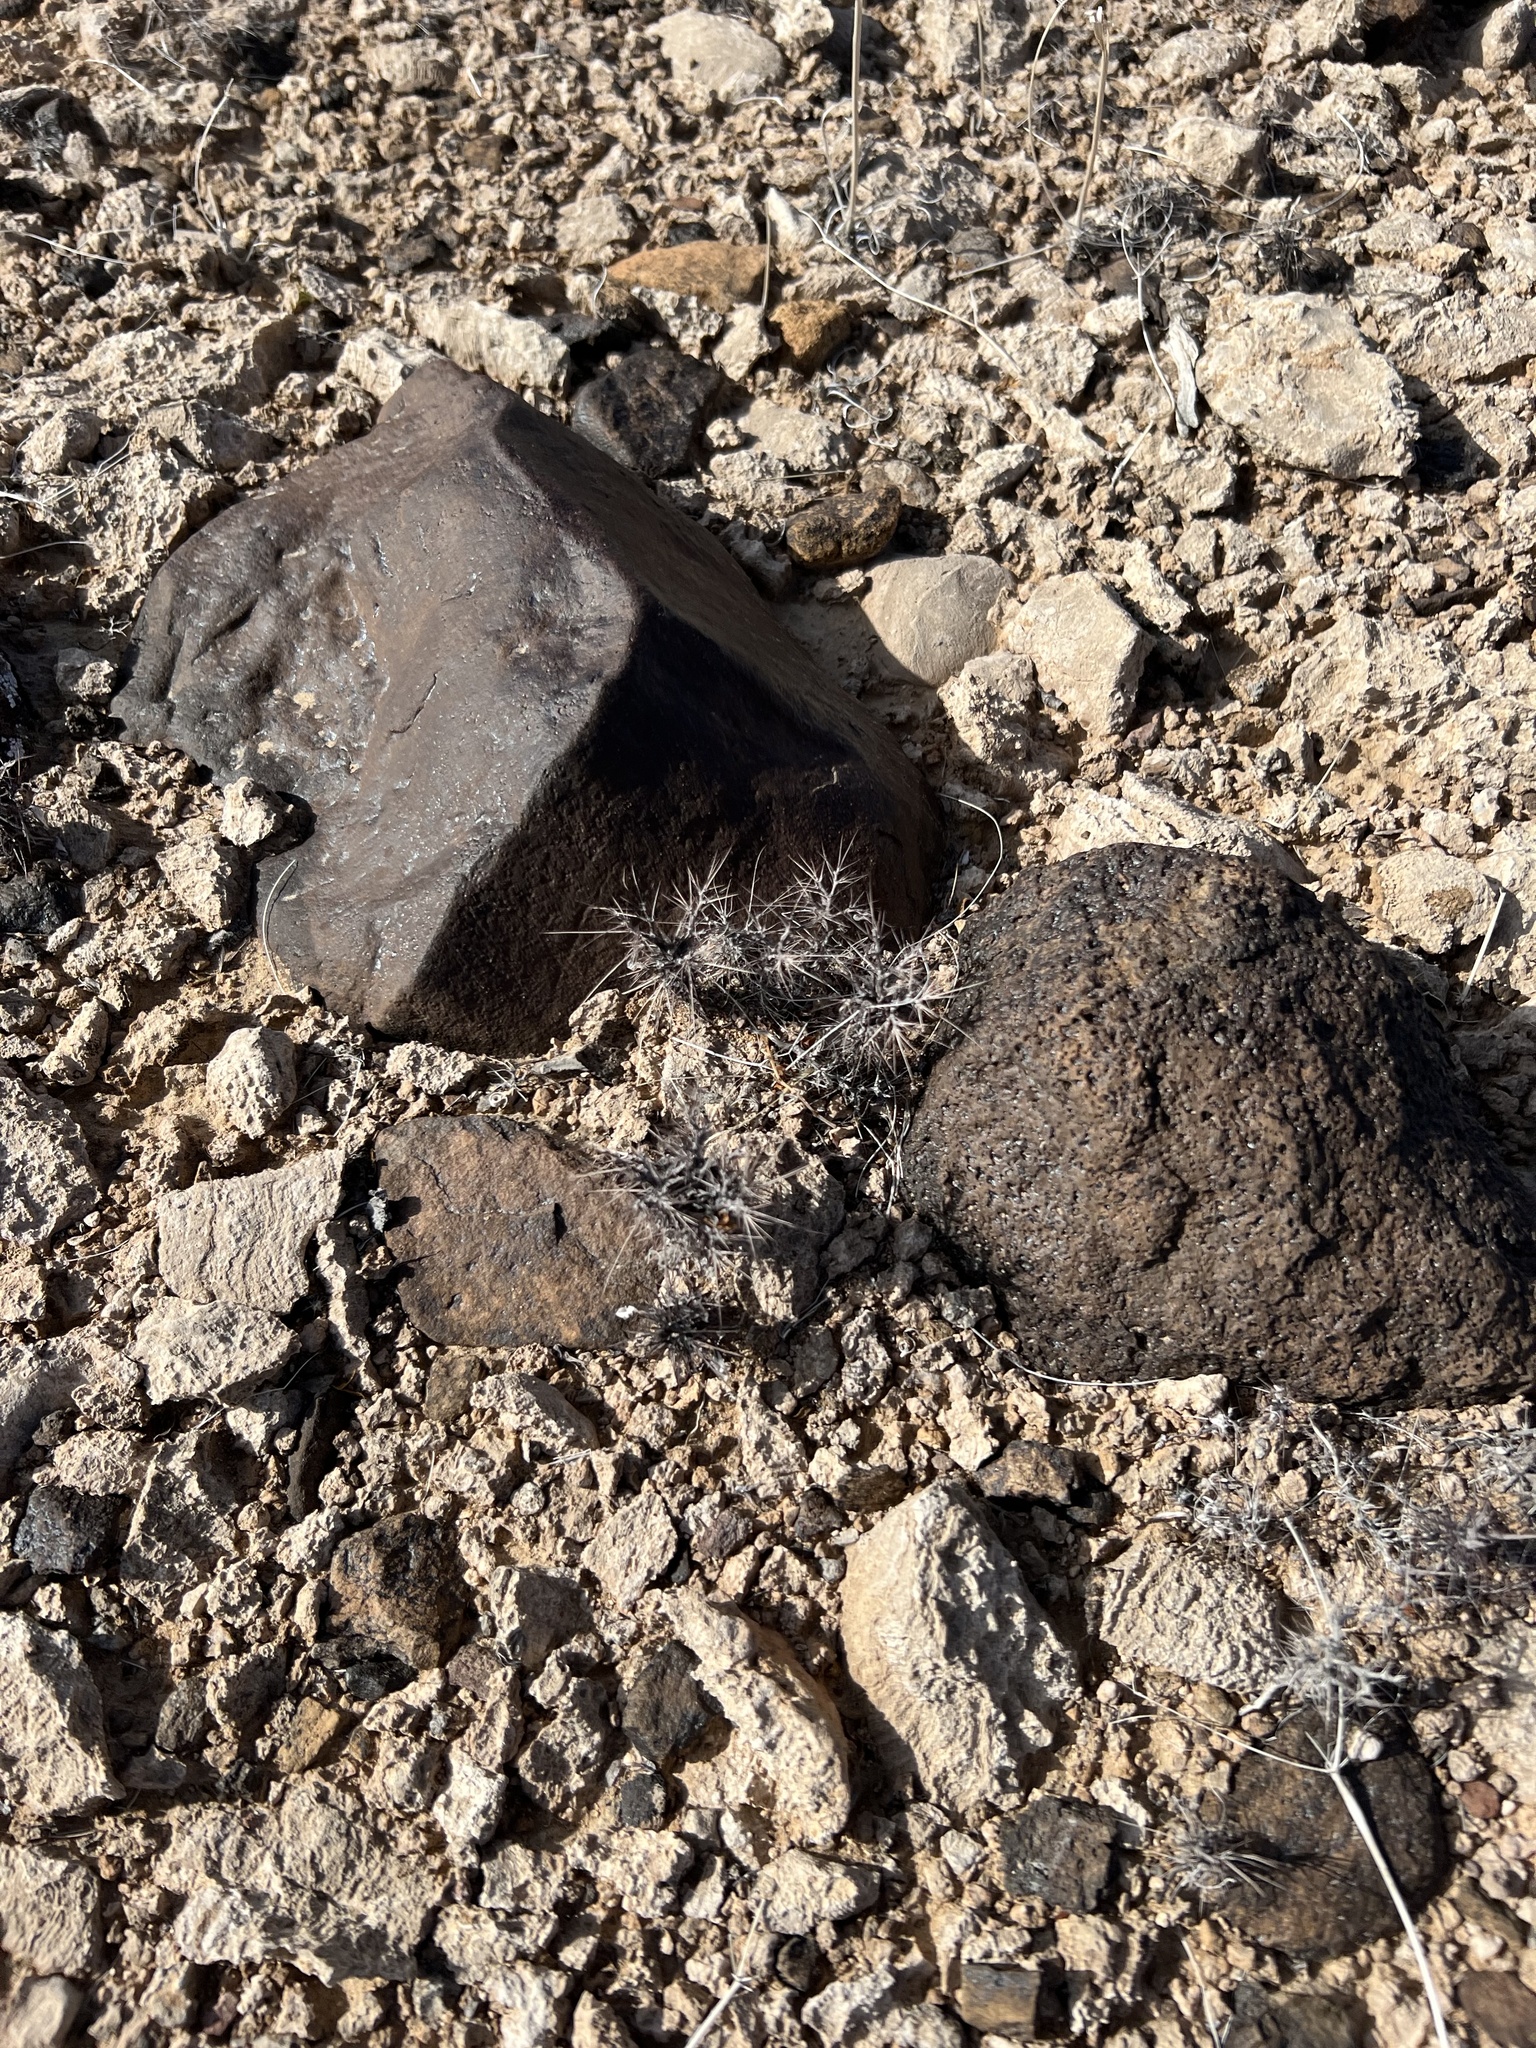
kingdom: Plantae
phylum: Tracheophyta
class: Magnoliopsida
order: Caryophyllales
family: Polygonaceae
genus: Chorizanthe
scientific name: Chorizanthe rigida
